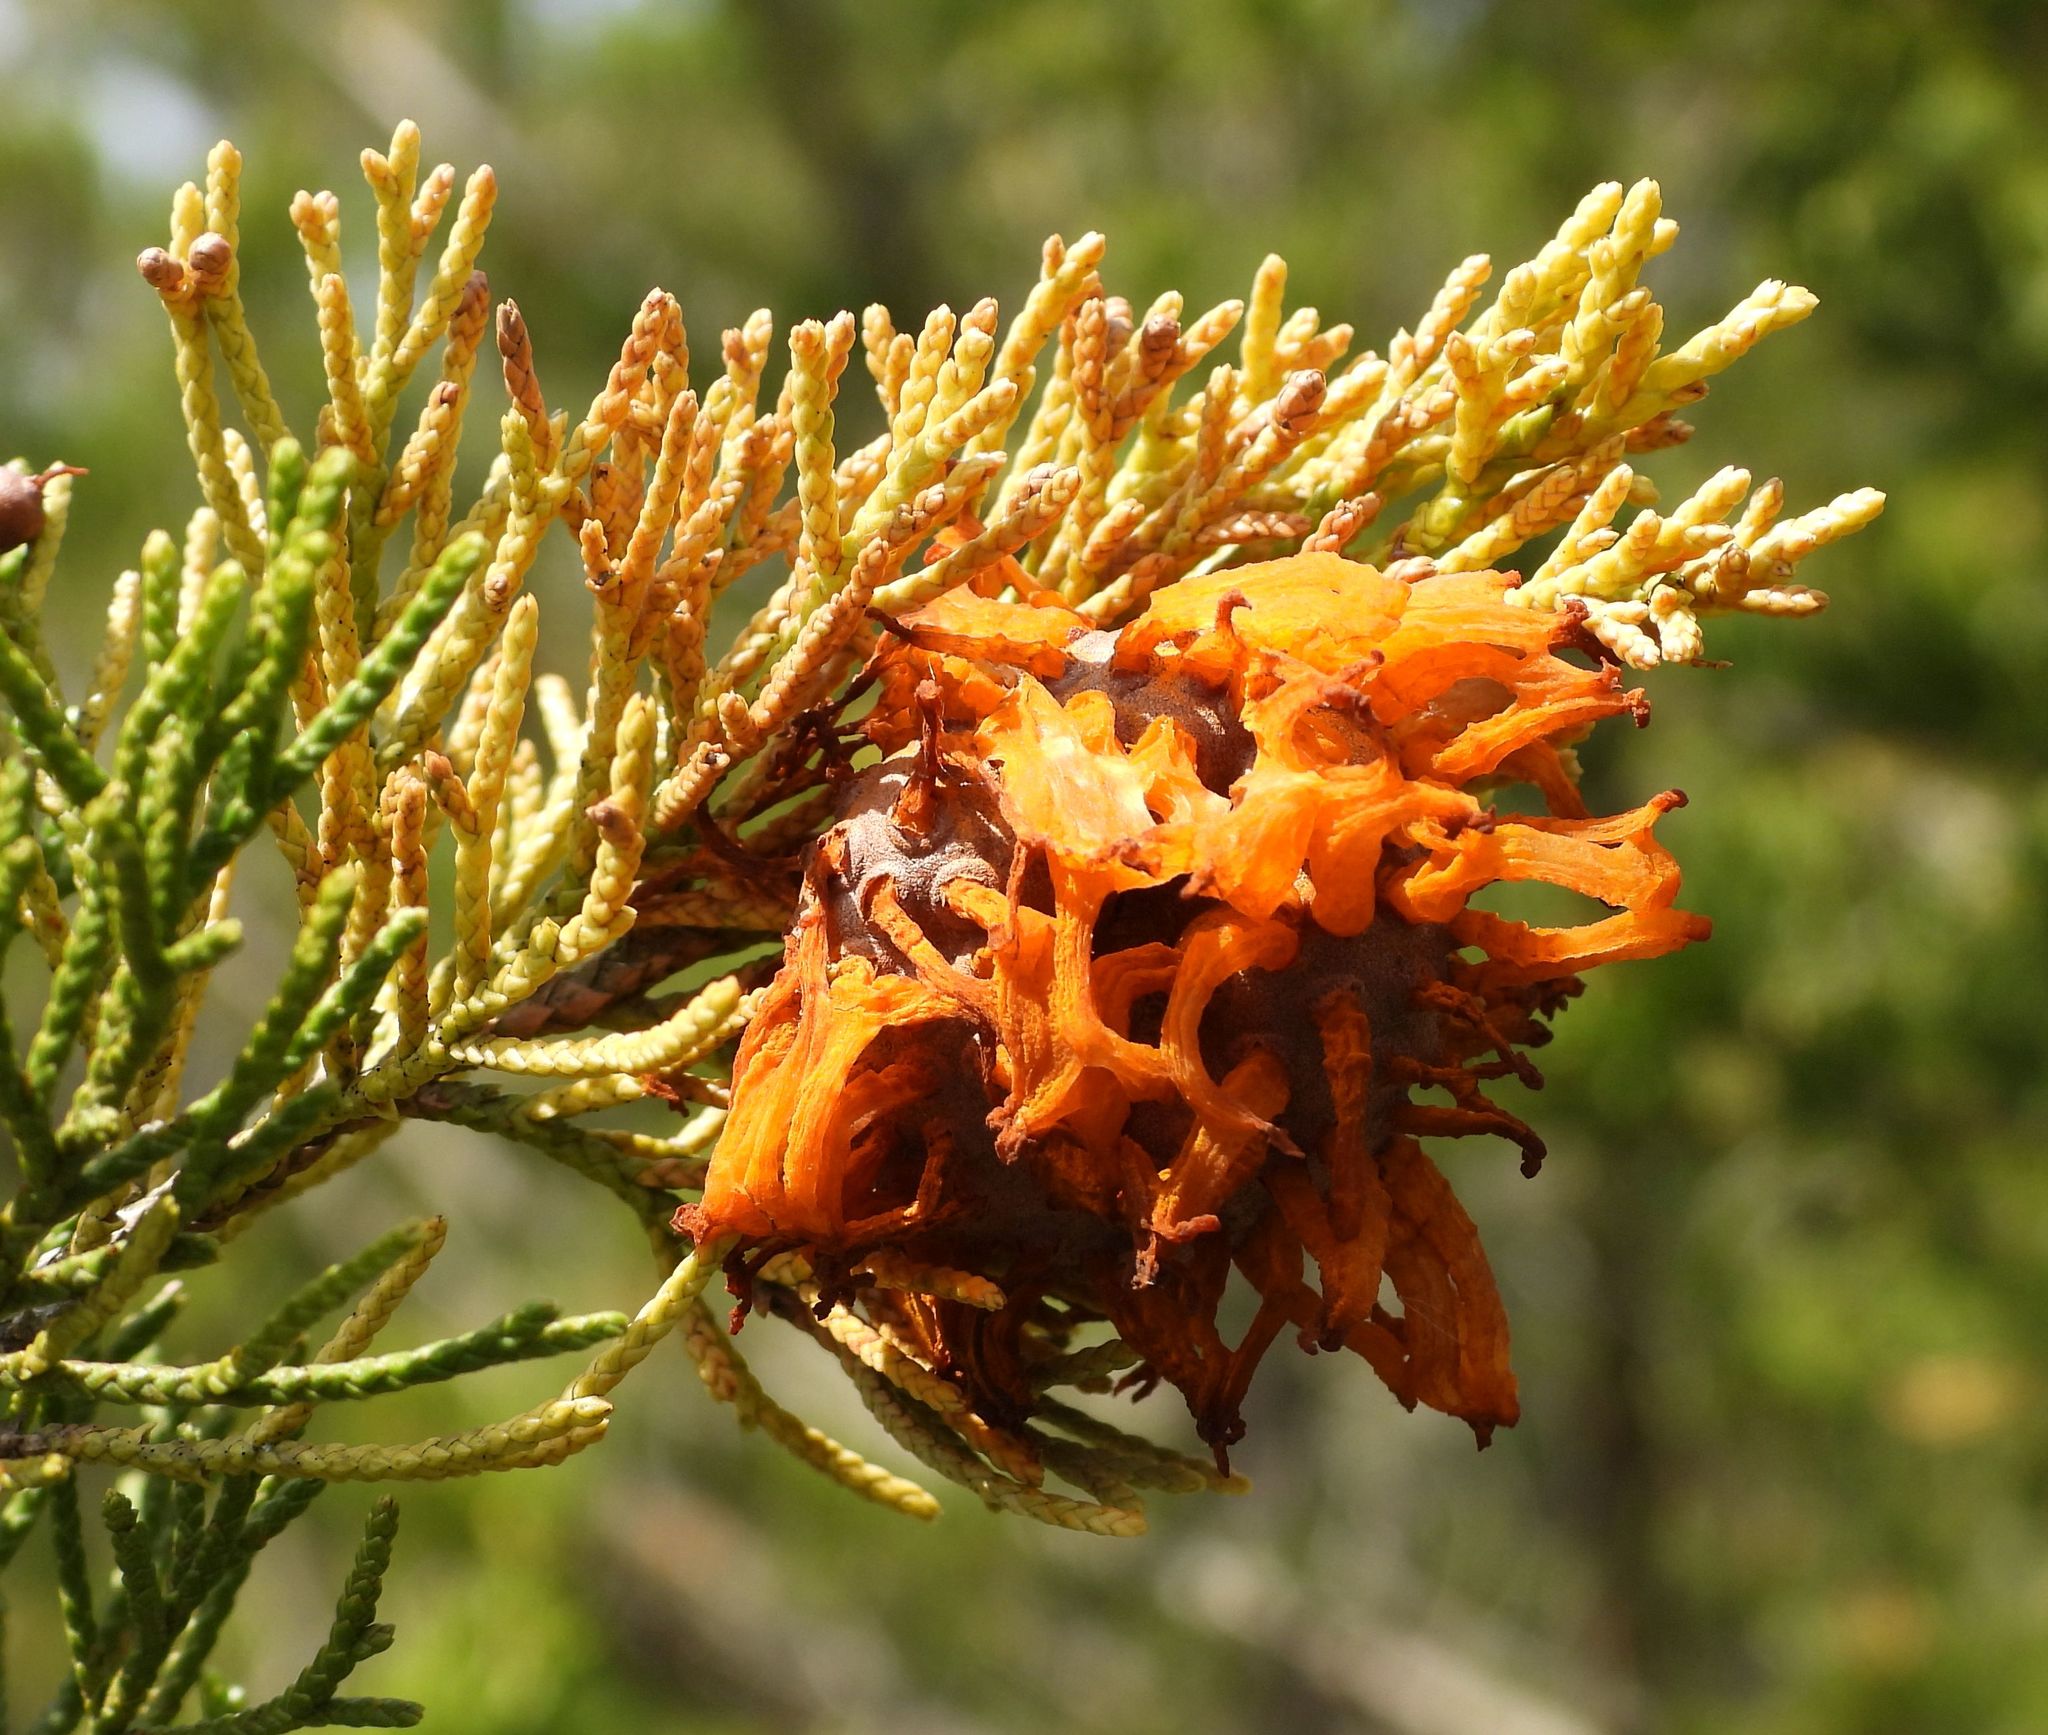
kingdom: Fungi
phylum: Basidiomycota
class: Pucciniomycetes
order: Pucciniales
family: Gymnosporangiaceae
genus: Gymnosporangium
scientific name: Gymnosporangium juniperi-virginianae
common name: Juniper-apple rust
